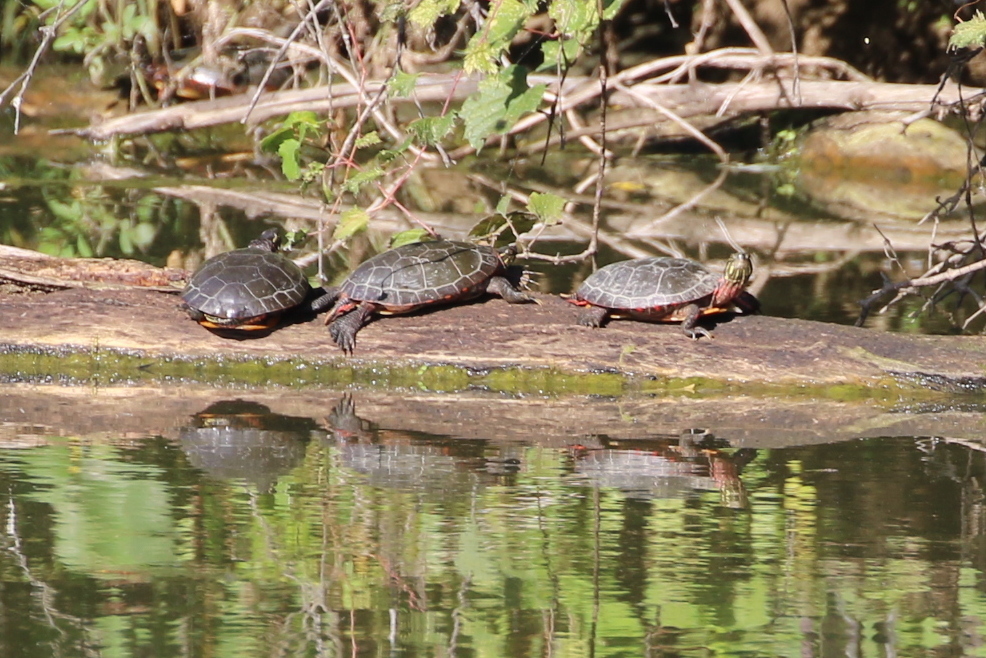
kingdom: Animalia
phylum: Chordata
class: Testudines
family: Emydidae
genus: Chrysemys
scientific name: Chrysemys picta
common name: Painted turtle
